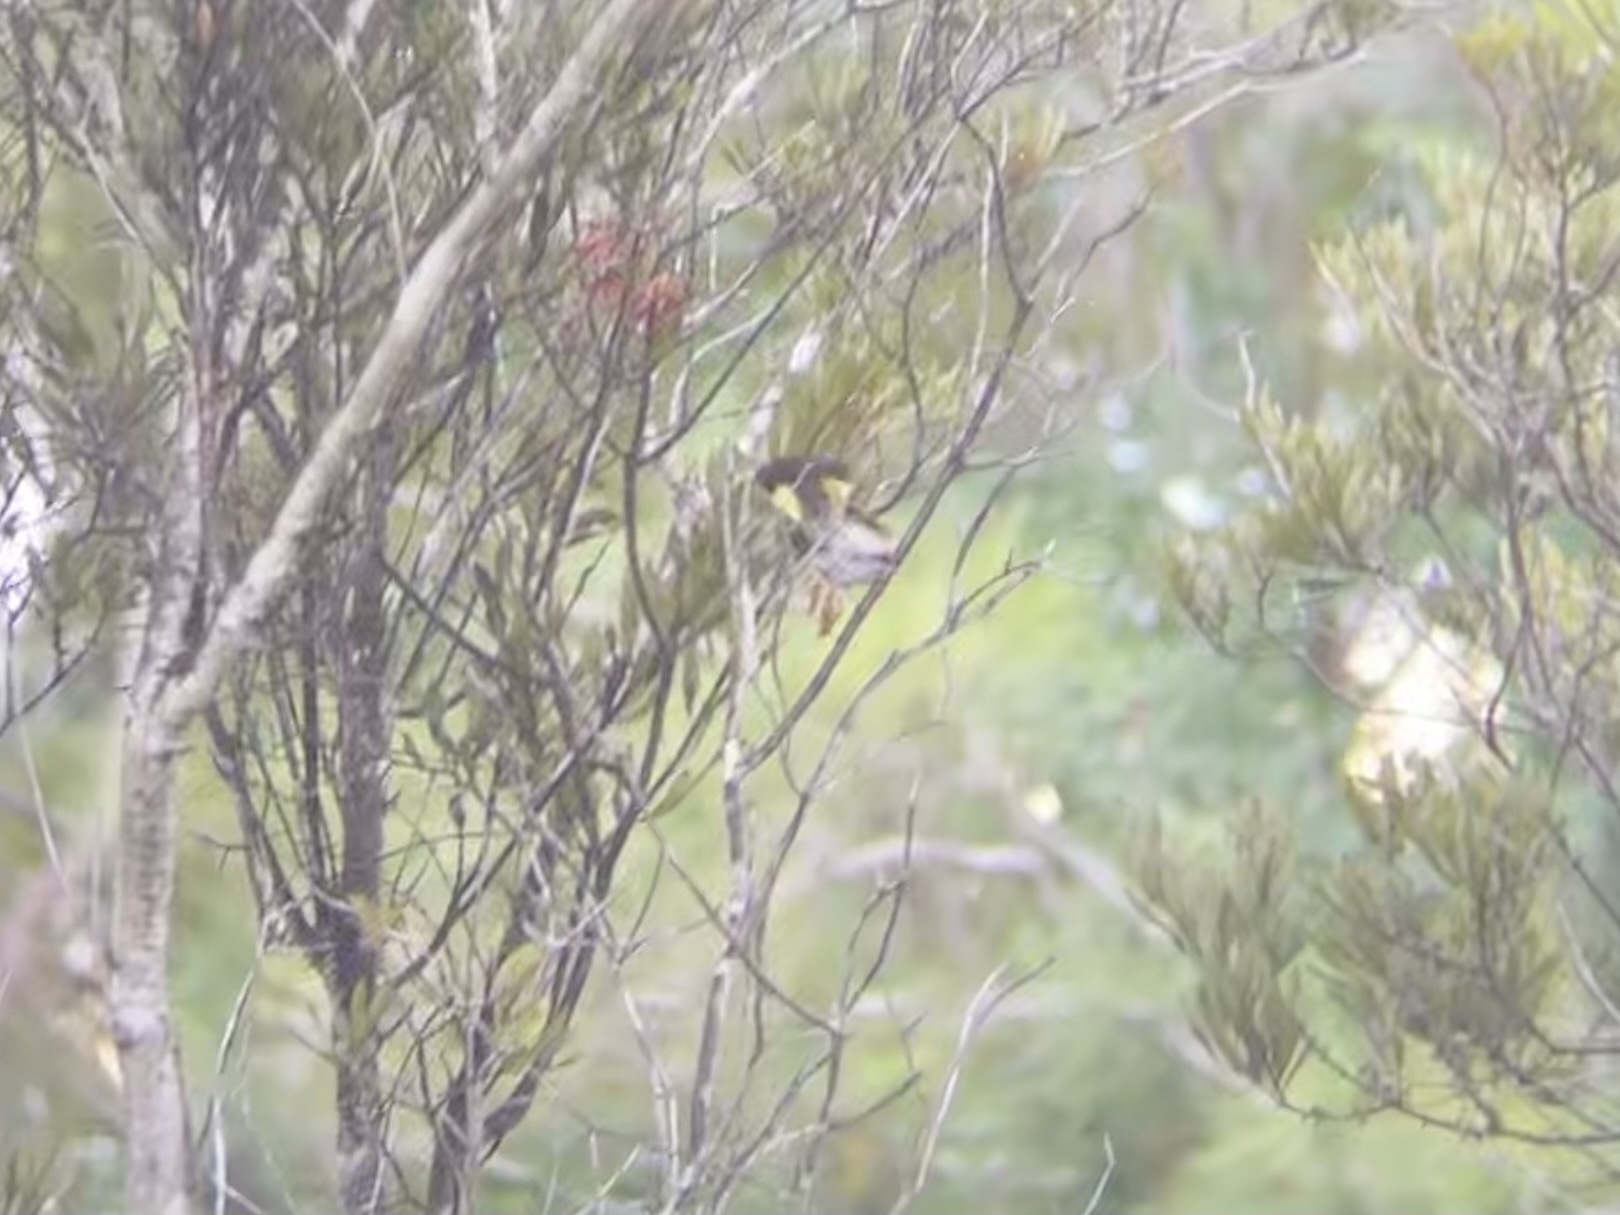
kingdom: Animalia
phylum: Chordata
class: Aves
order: Passeriformes
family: Parulidae
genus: Setophaga
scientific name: Setophaga ruticilla
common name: American redstart
